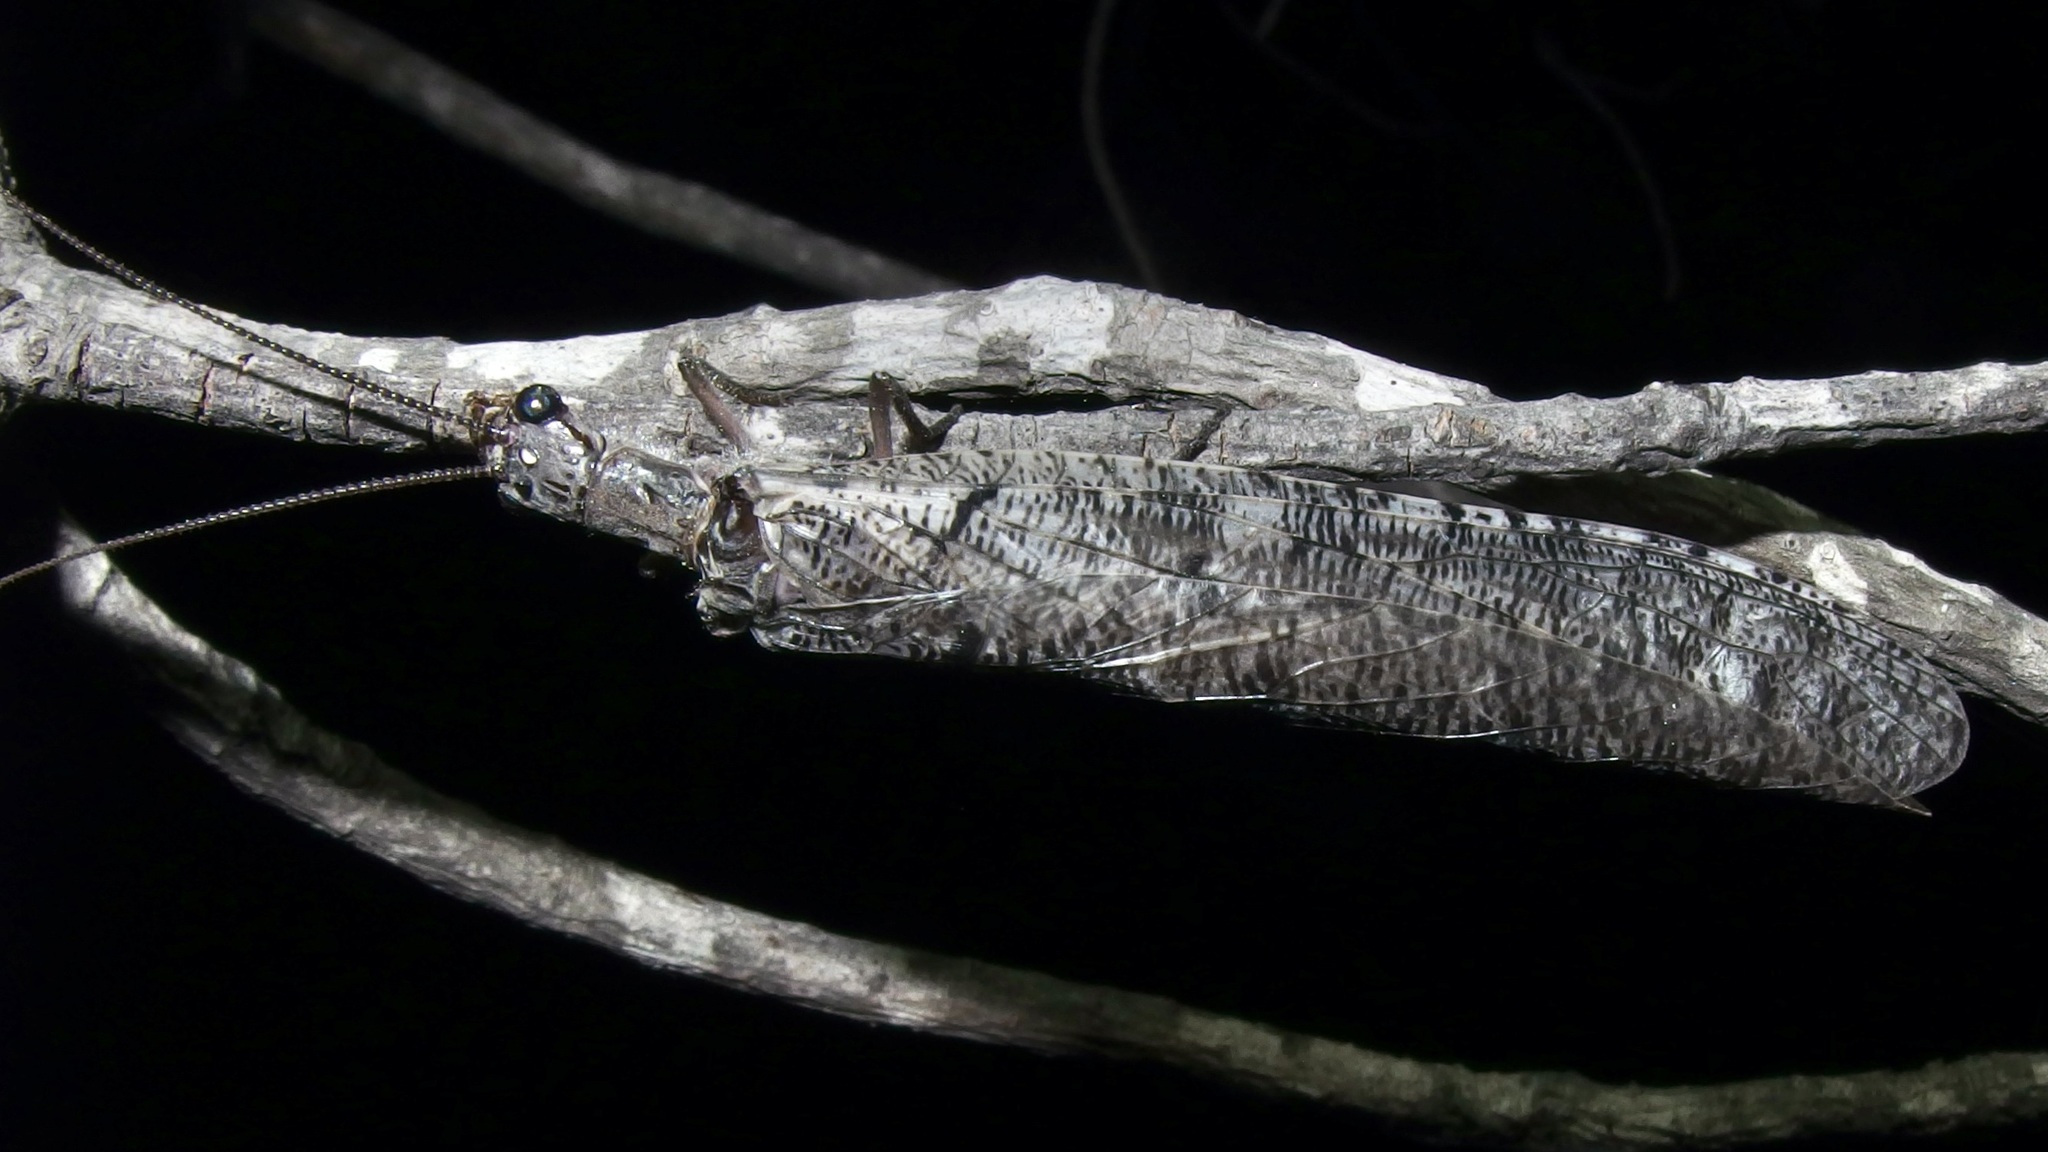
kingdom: Animalia
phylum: Arthropoda
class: Insecta
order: Megaloptera
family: Corydalidae
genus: Neohermes
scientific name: Neohermes filicornis
